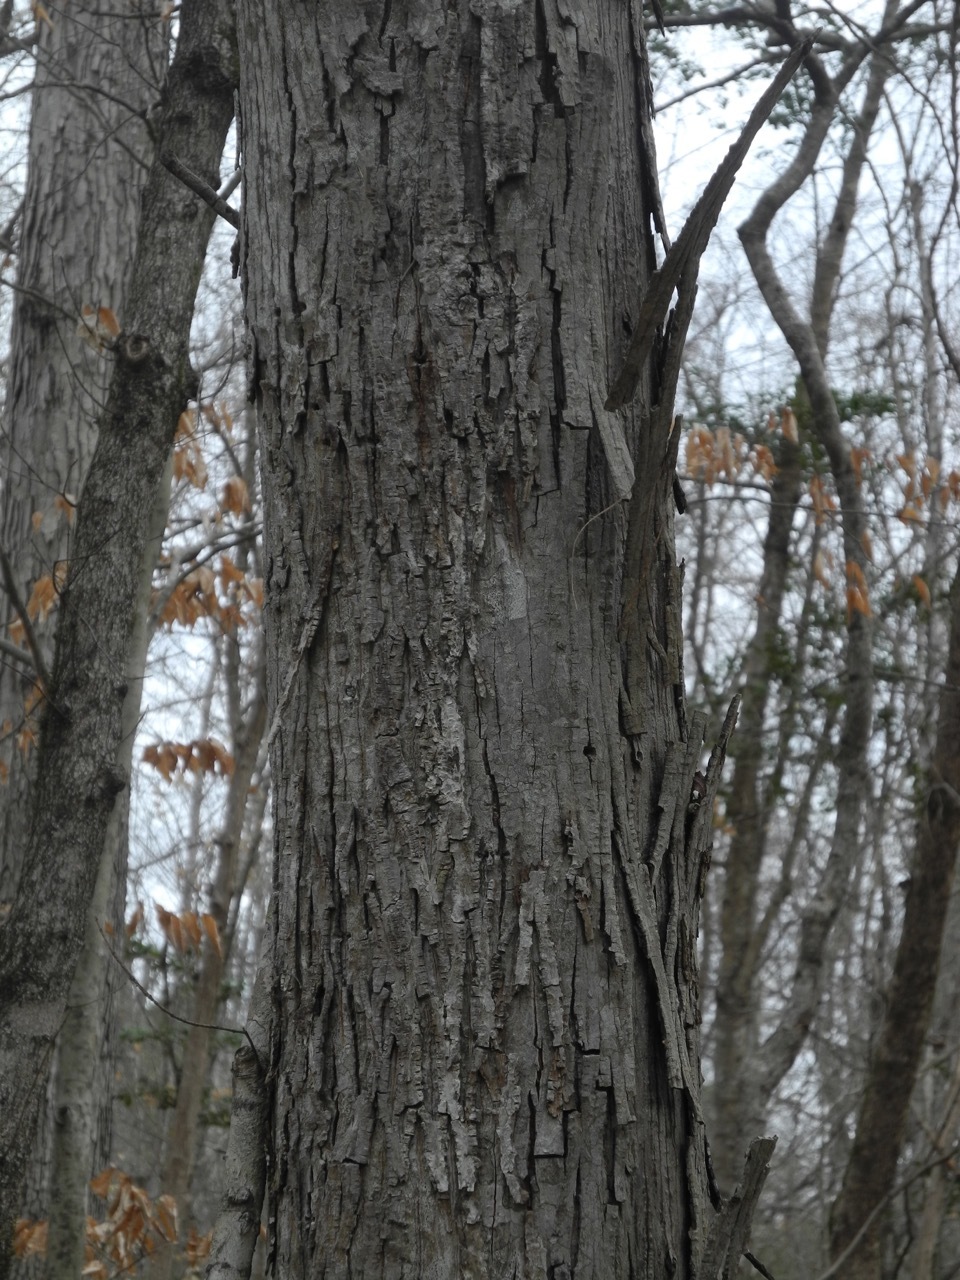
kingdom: Plantae
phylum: Tracheophyta
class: Magnoliopsida
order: Fagales
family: Juglandaceae
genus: Carya
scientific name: Carya ovata
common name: Shagbark hickory
